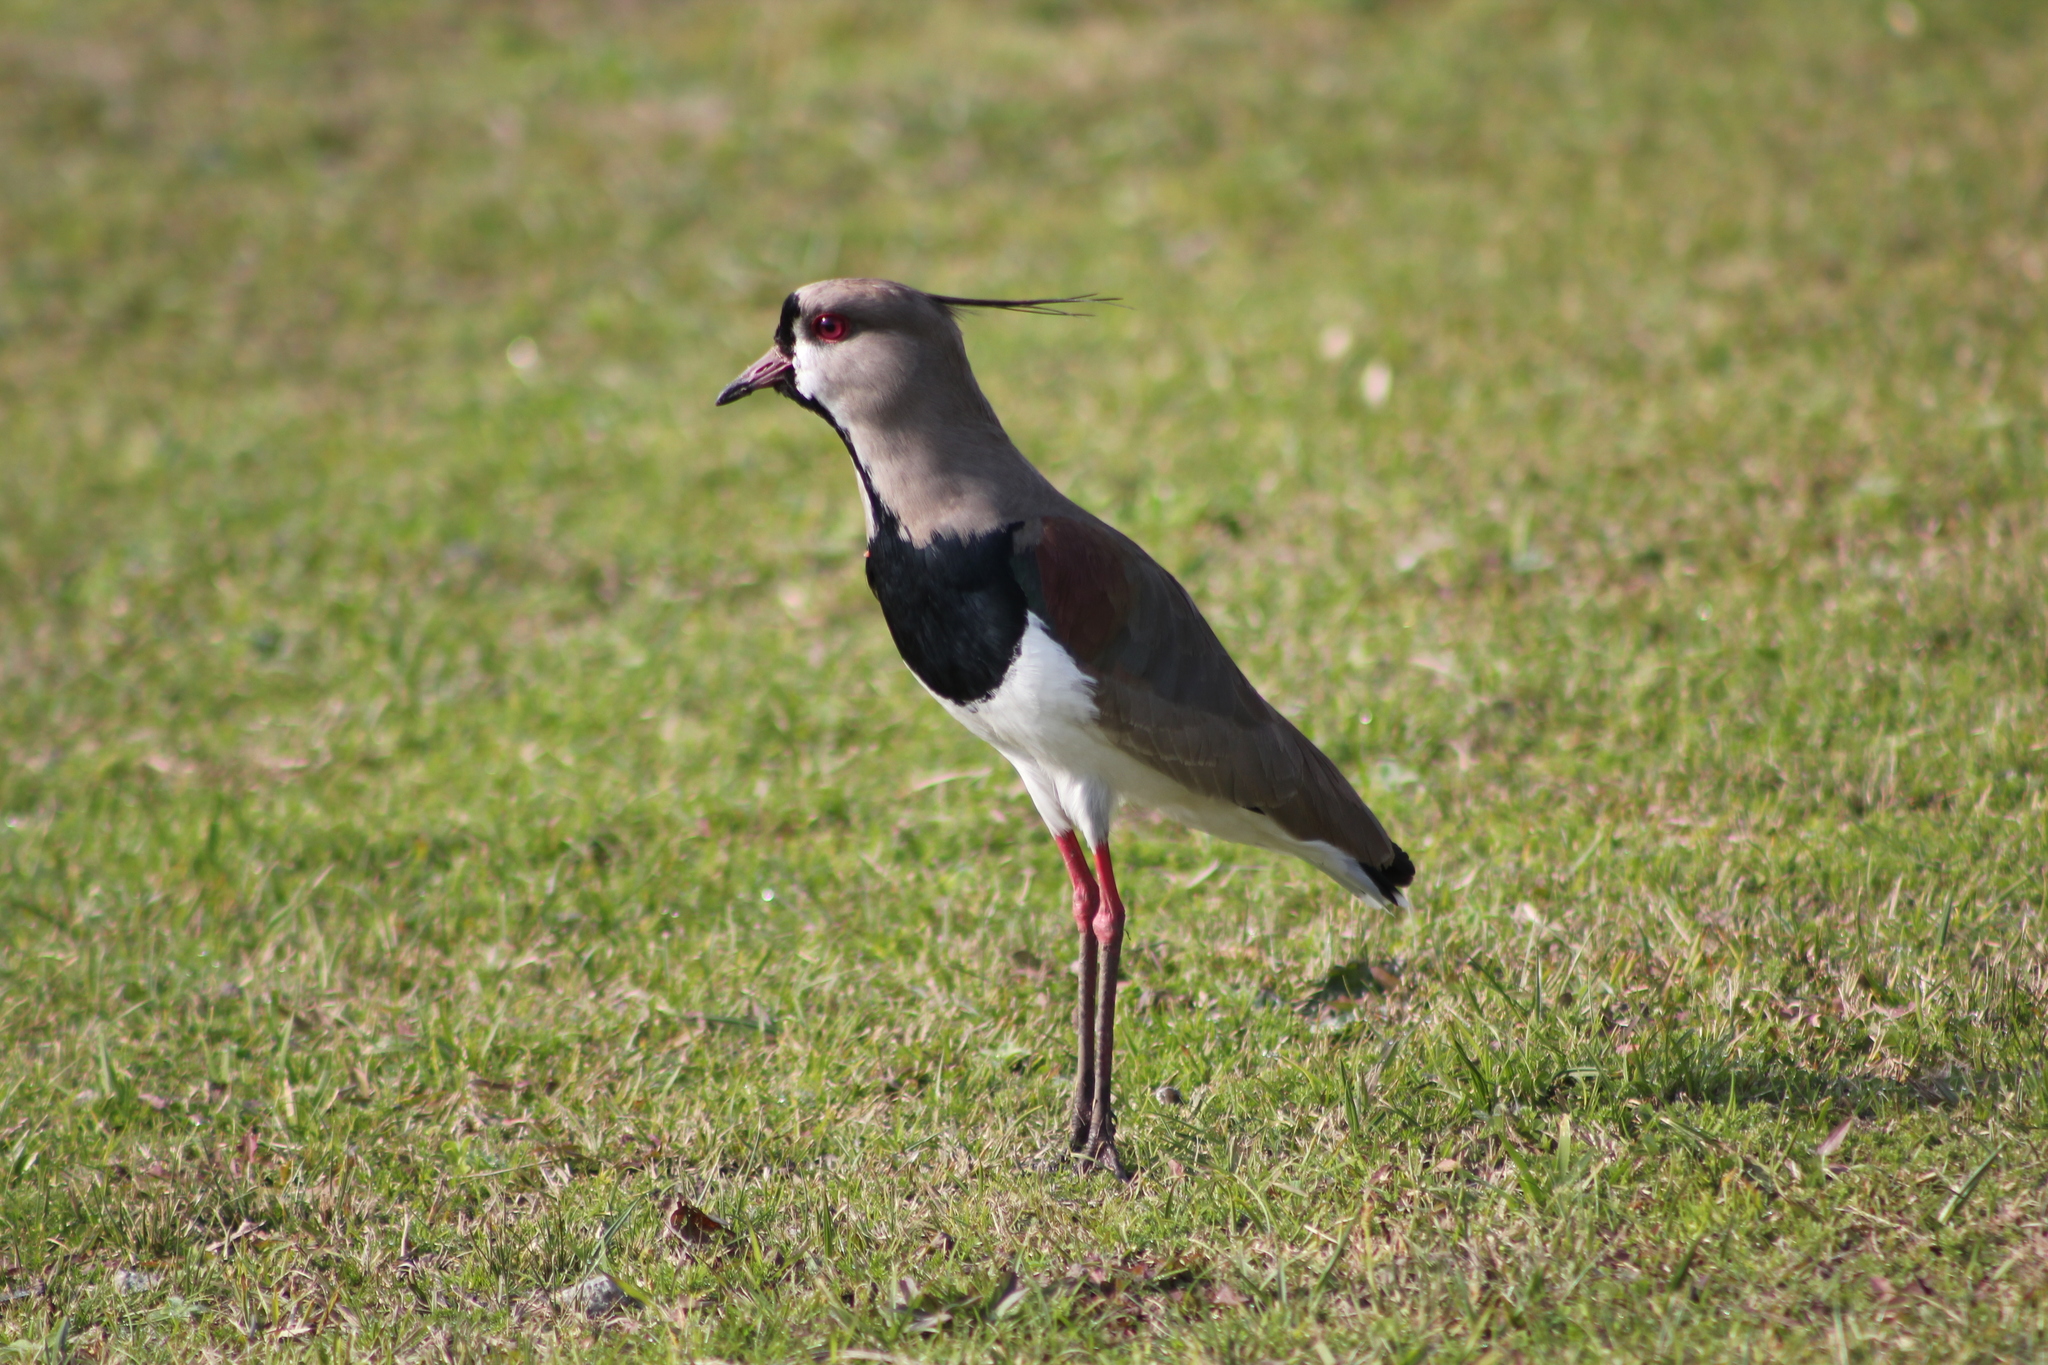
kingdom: Animalia
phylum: Chordata
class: Aves
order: Charadriiformes
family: Charadriidae
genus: Vanellus
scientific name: Vanellus chilensis
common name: Southern lapwing
